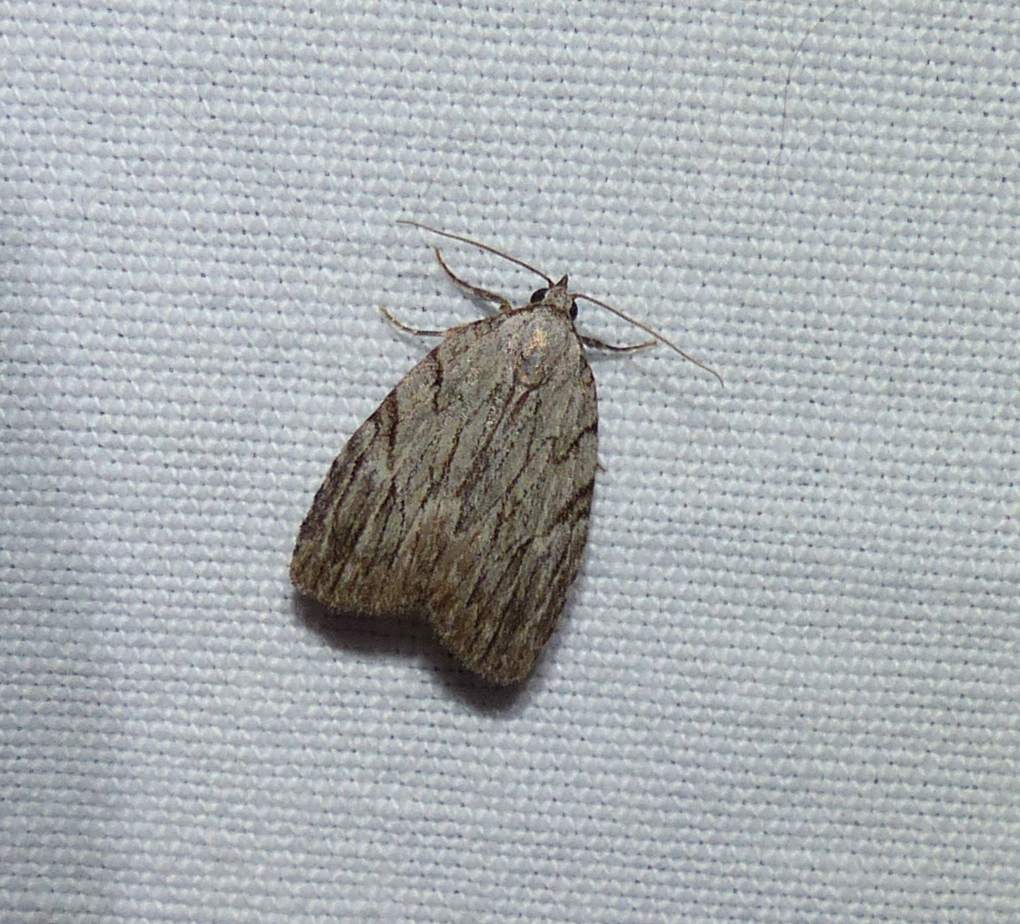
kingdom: Animalia
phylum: Arthropoda
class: Insecta
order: Lepidoptera
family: Noctuidae
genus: Balsa
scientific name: Balsa tristrigella
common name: Three-lined balsa moth
